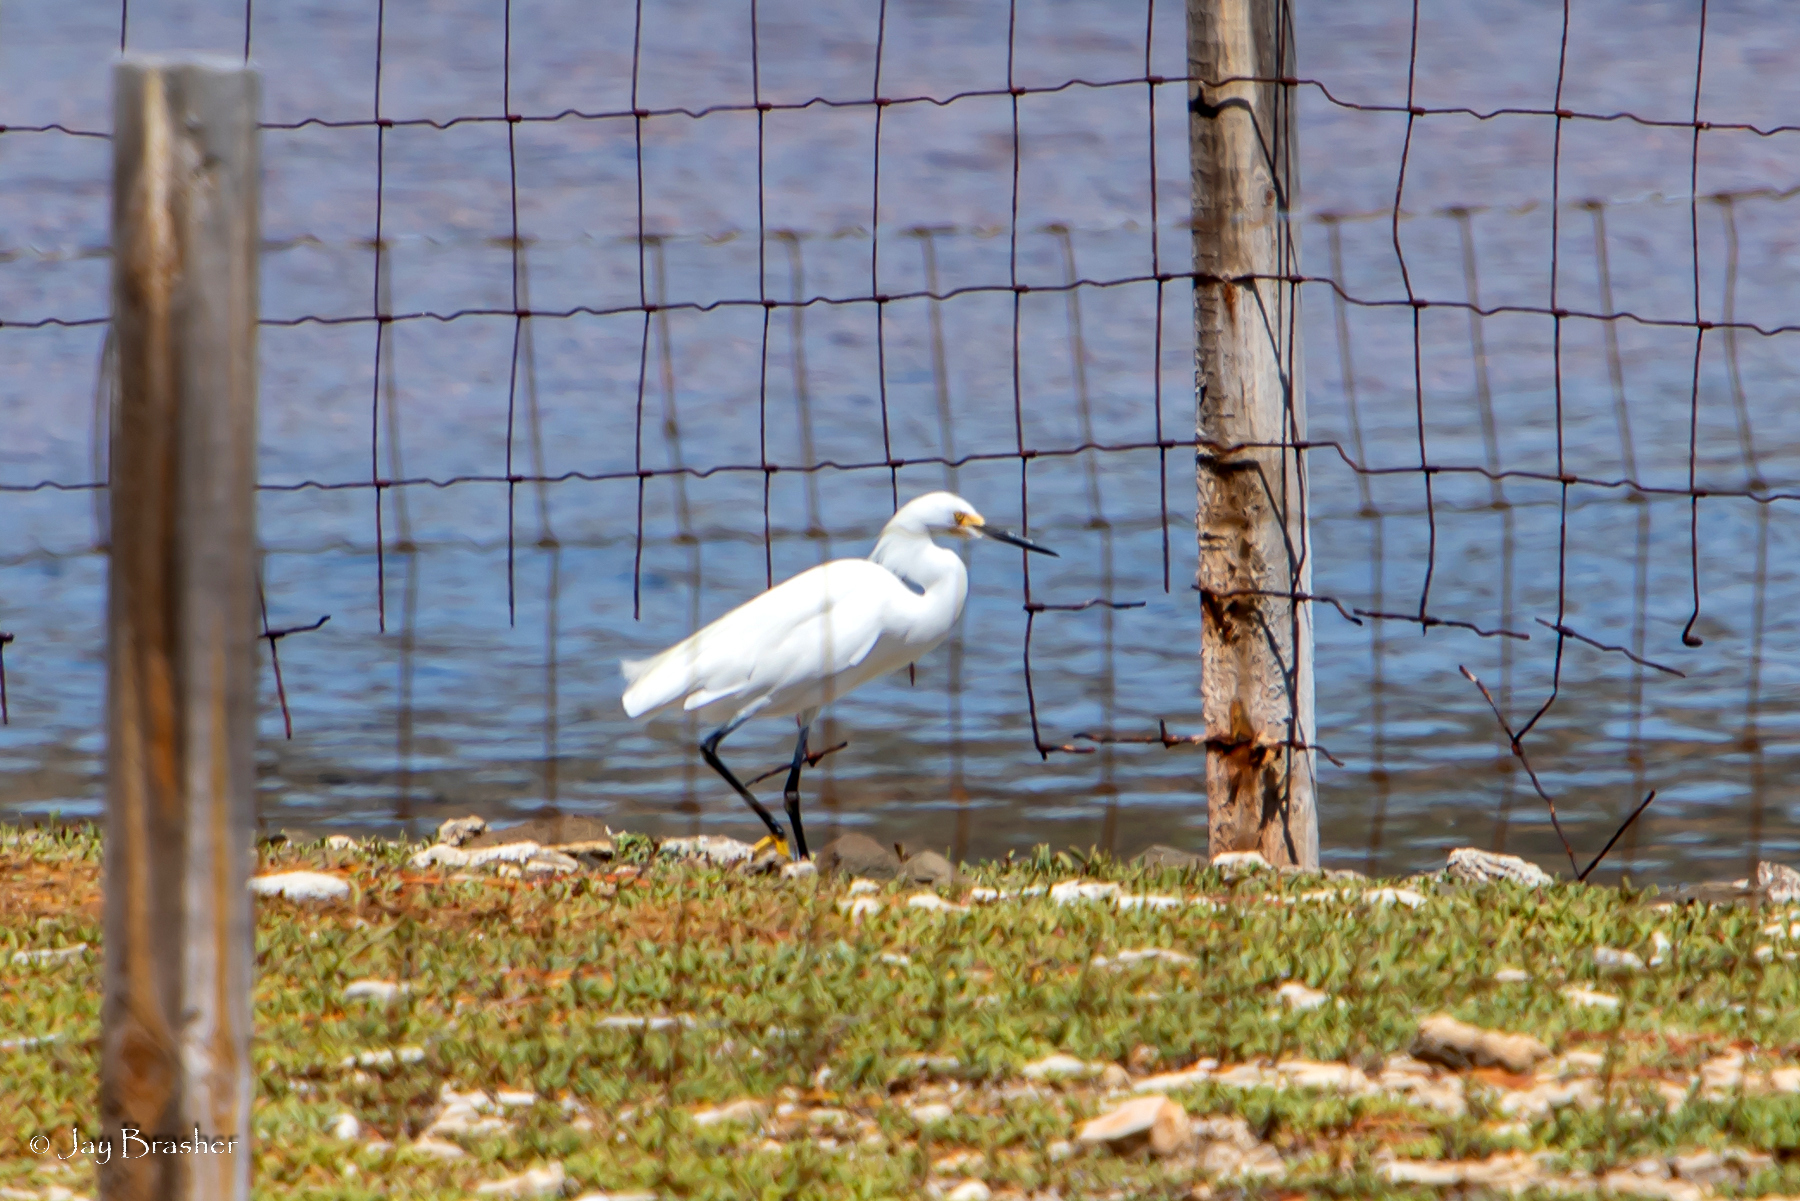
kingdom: Animalia
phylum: Chordata
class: Aves
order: Pelecaniformes
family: Ardeidae
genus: Egretta
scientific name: Egretta thula
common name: Snowy egret
